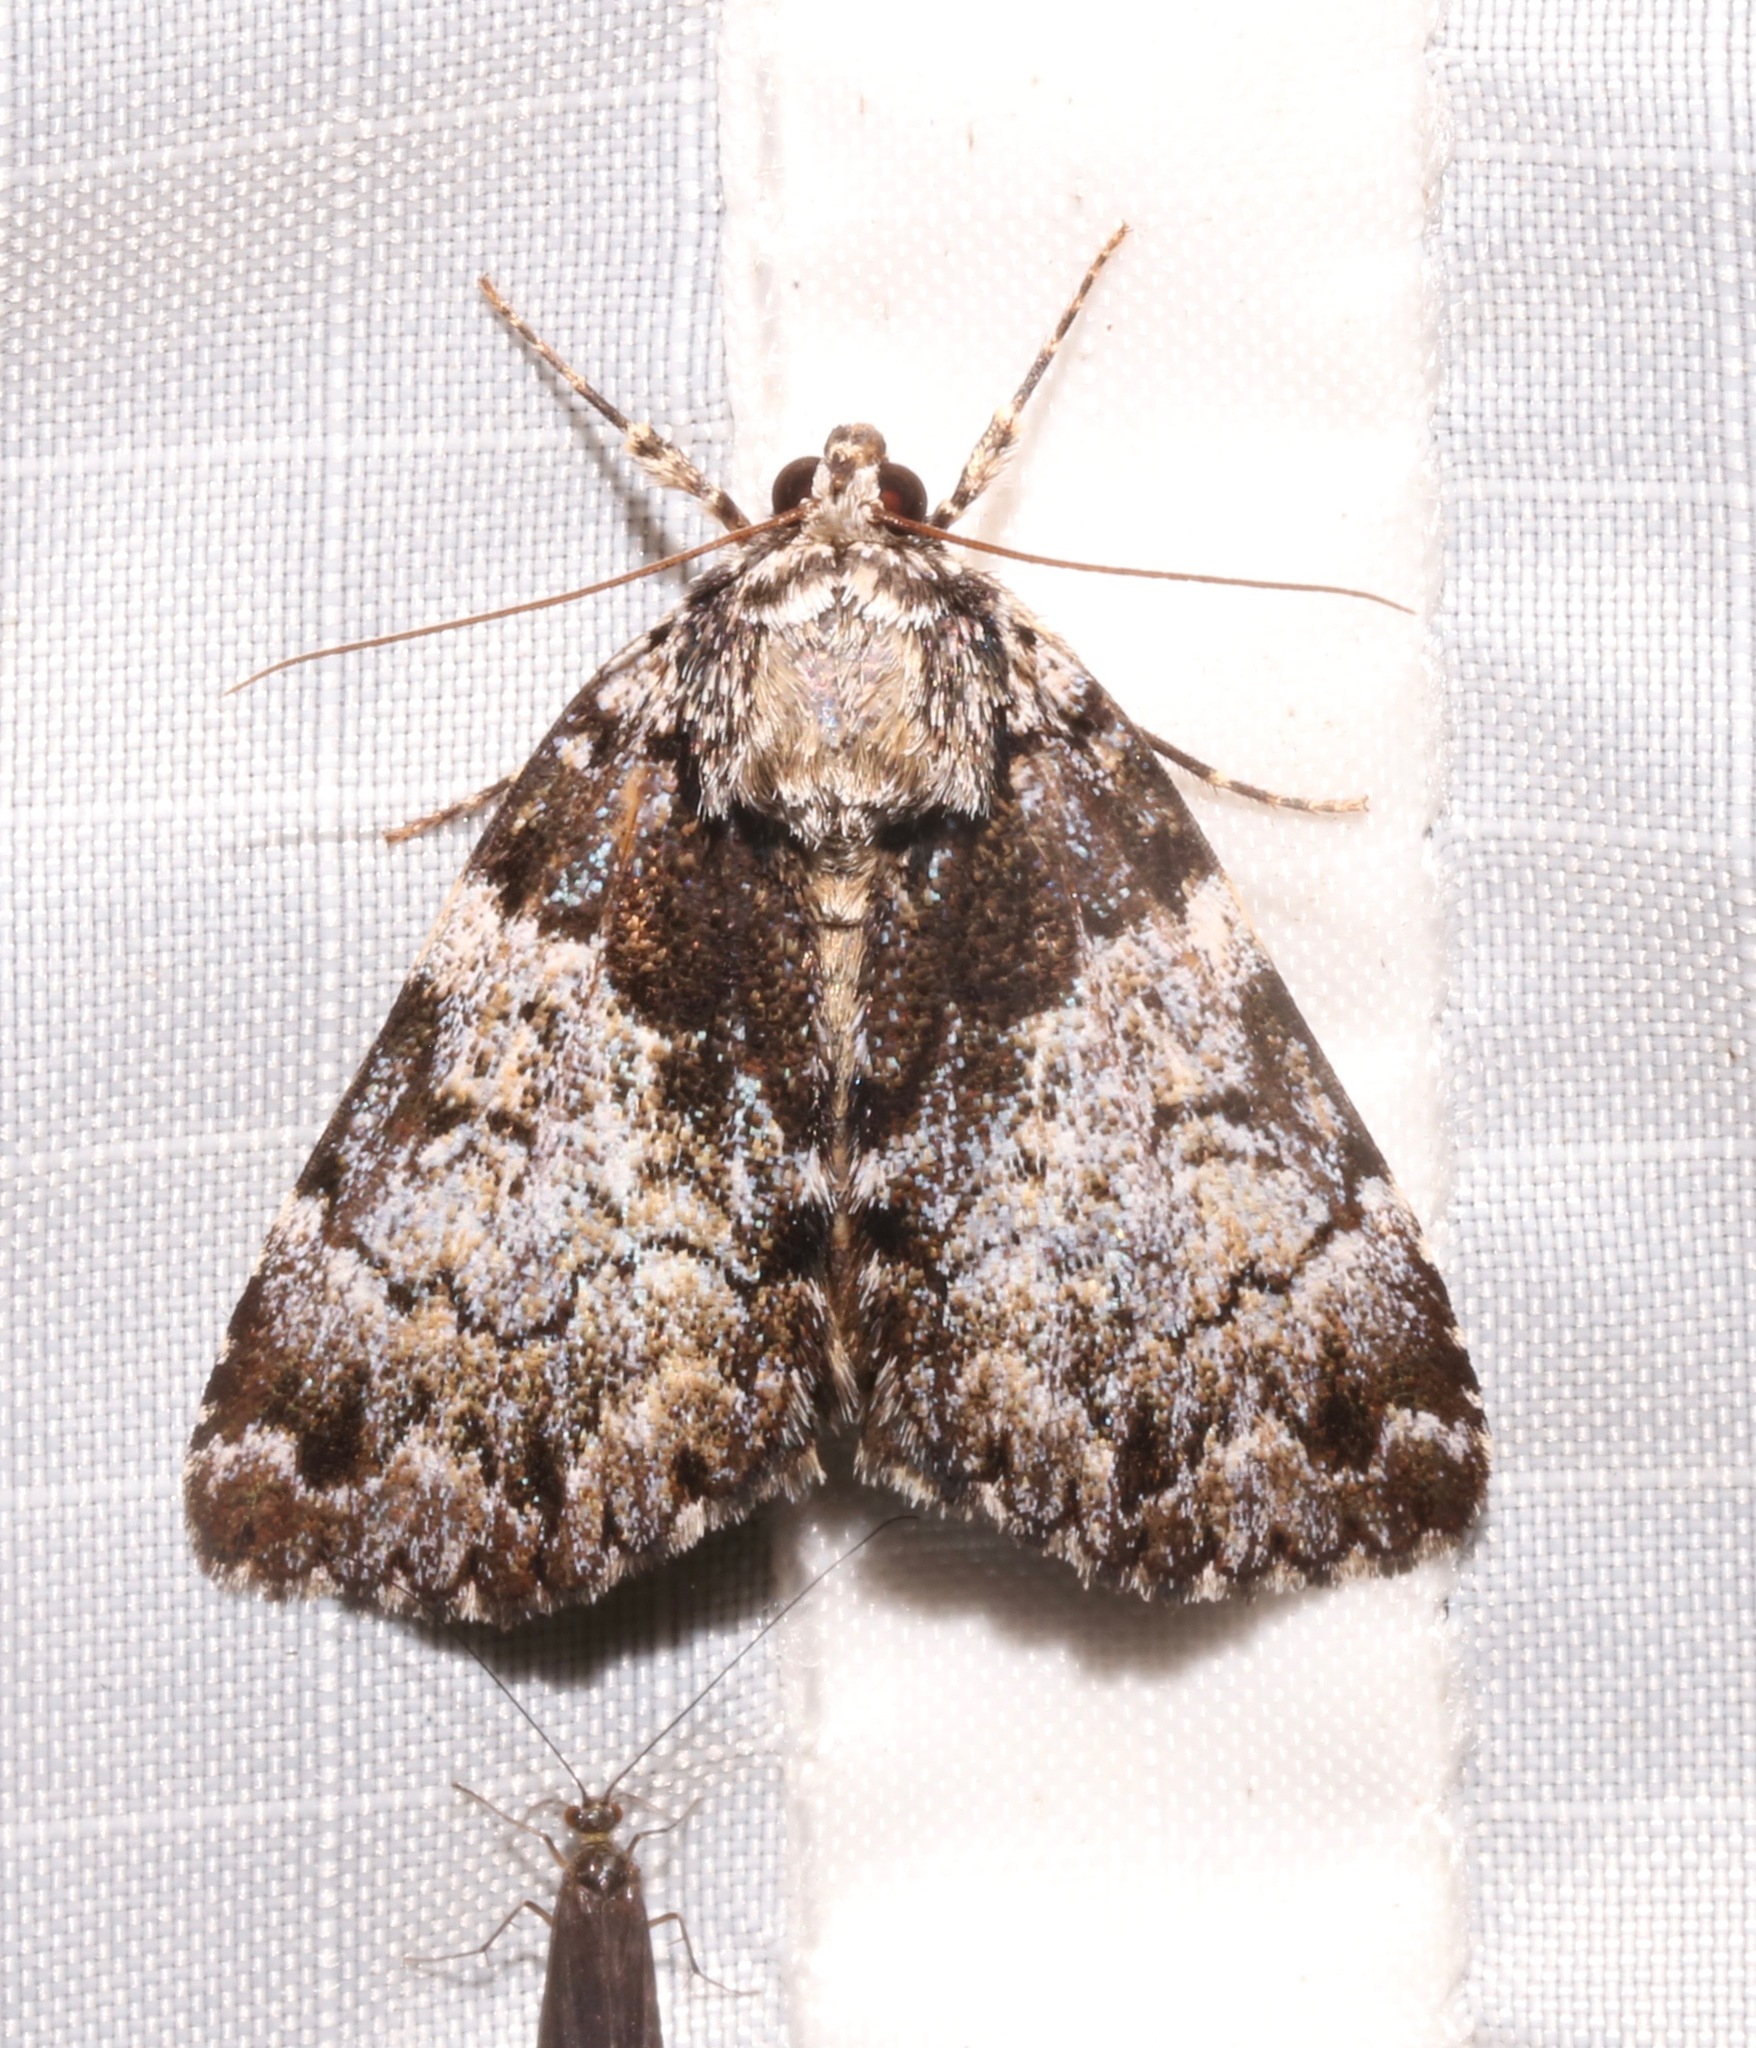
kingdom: Animalia
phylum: Arthropoda
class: Insecta
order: Lepidoptera
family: Erebidae
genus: Allotria
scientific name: Allotria elonympha
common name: False underwing
